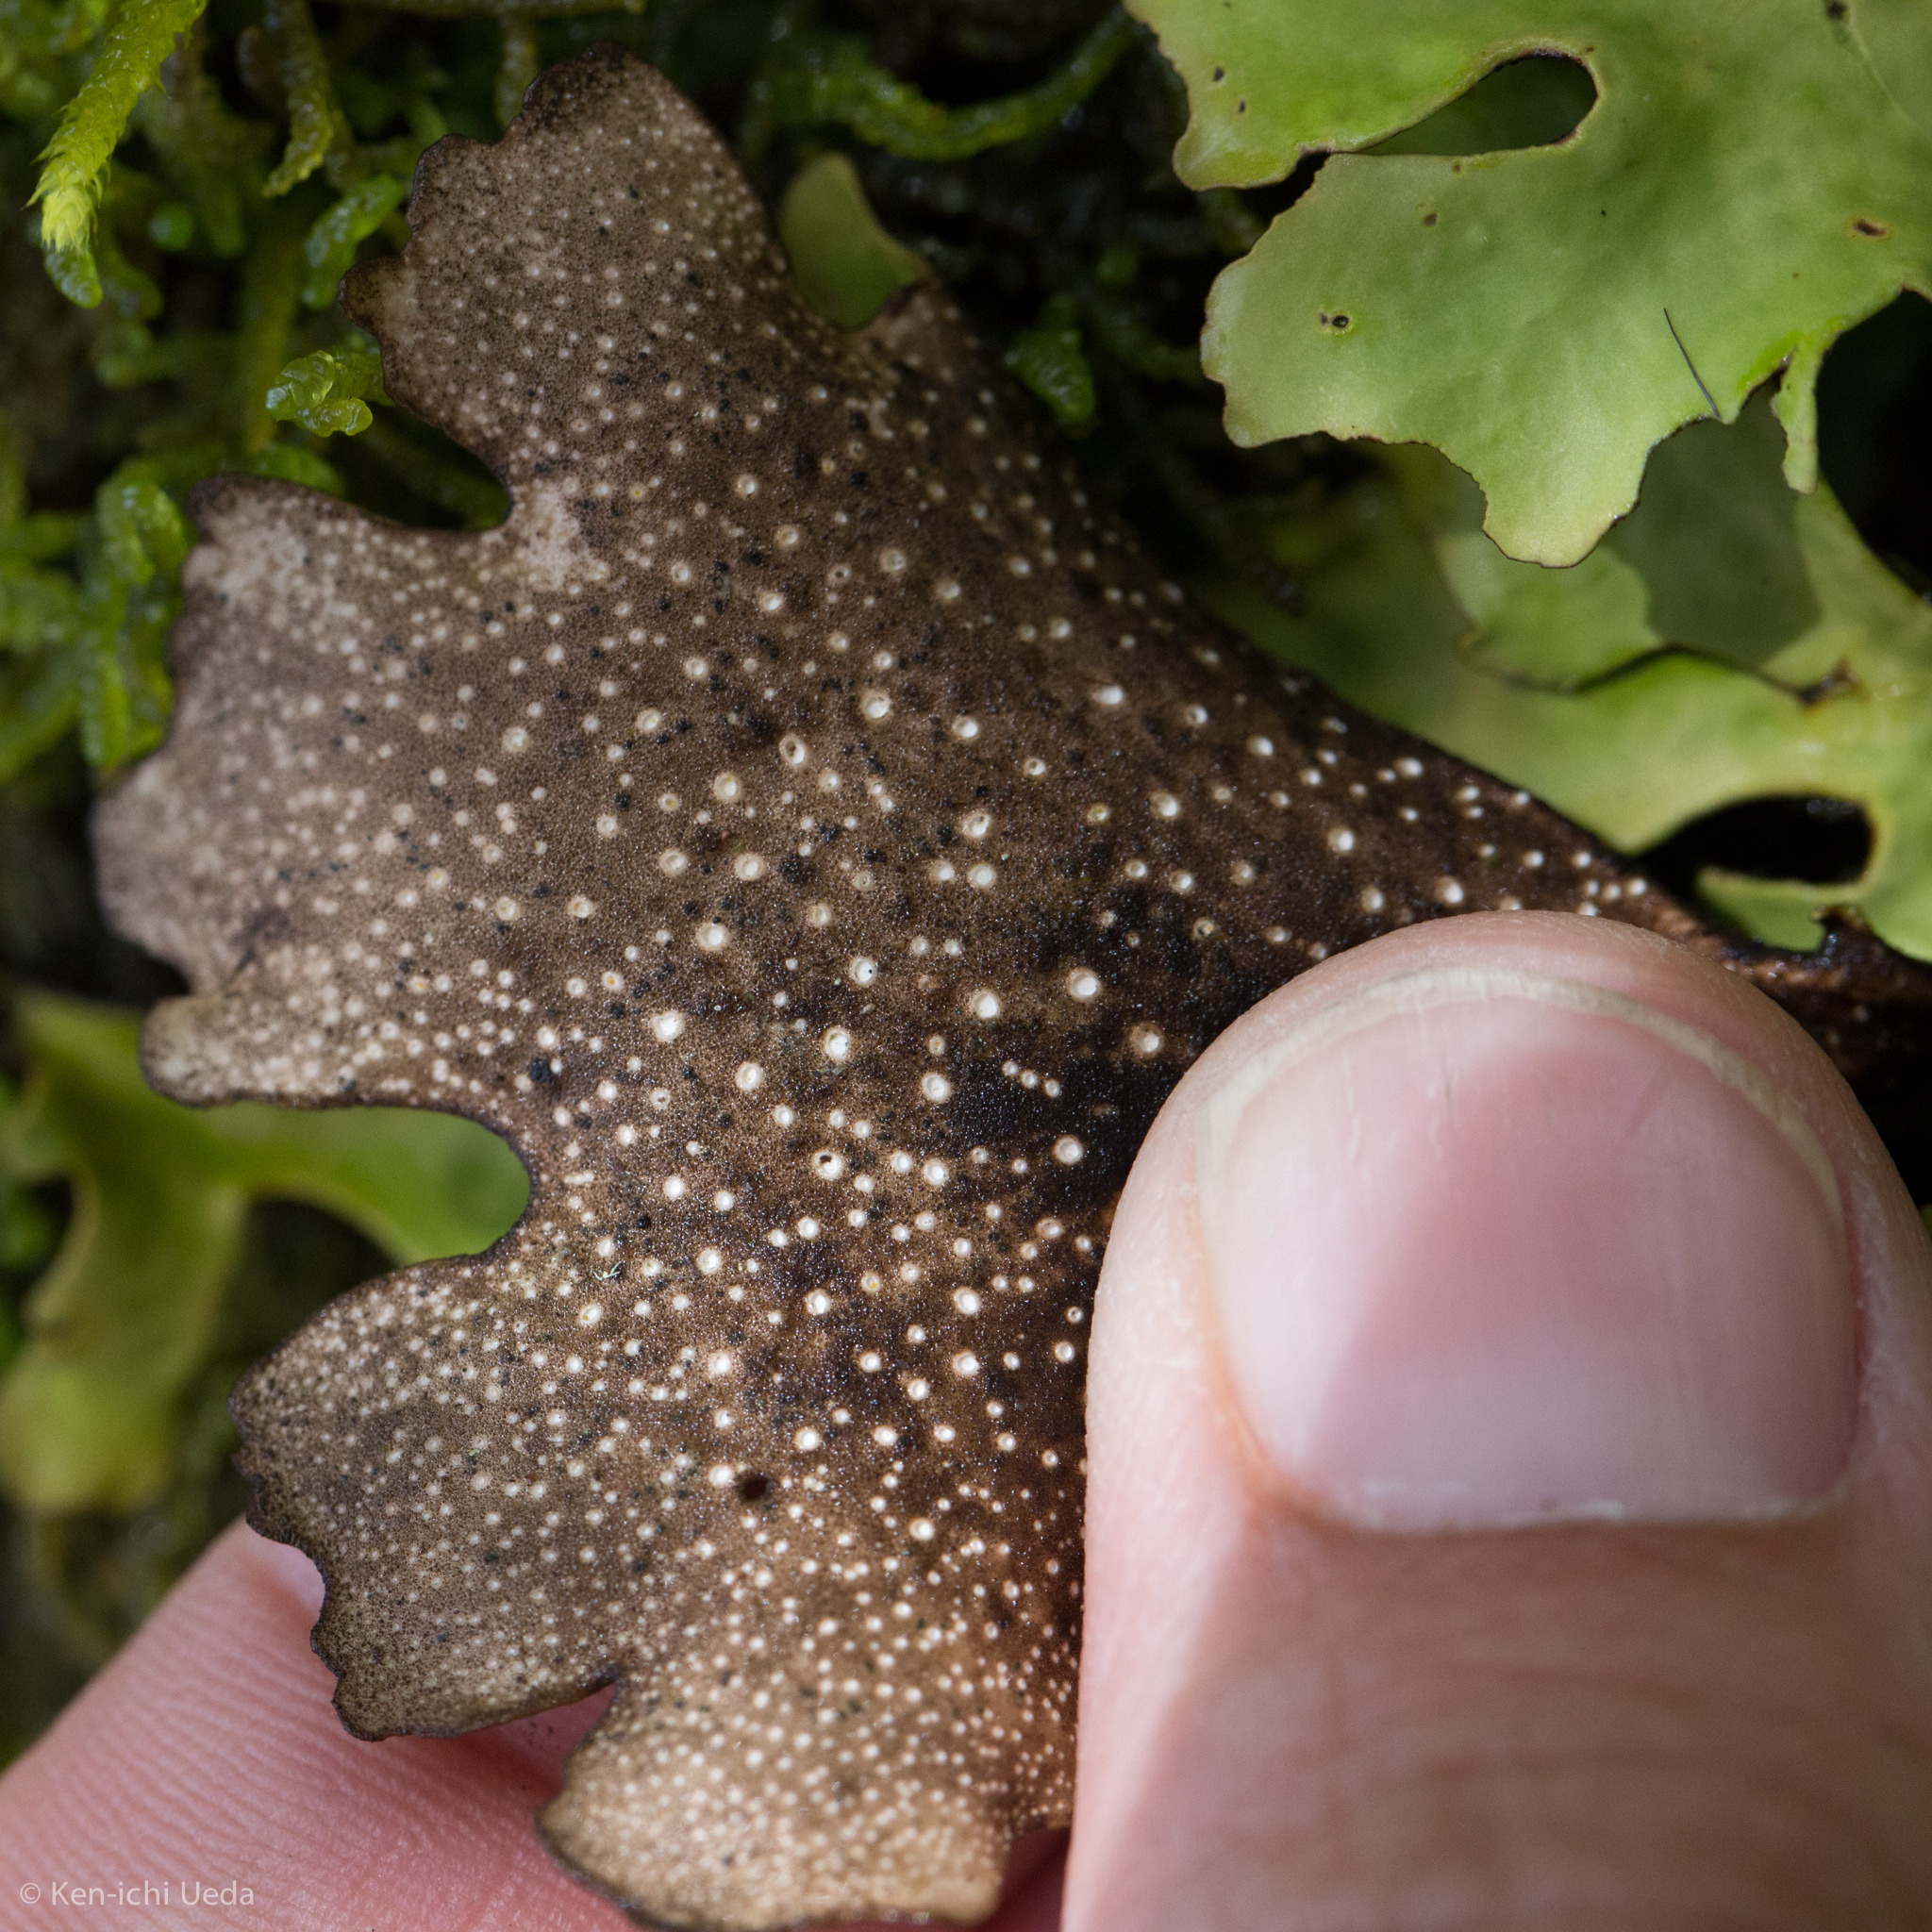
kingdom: Fungi
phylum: Ascomycota
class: Lecanoromycetes
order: Peltigerales
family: Lobariaceae
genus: Sticta
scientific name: Sticta
